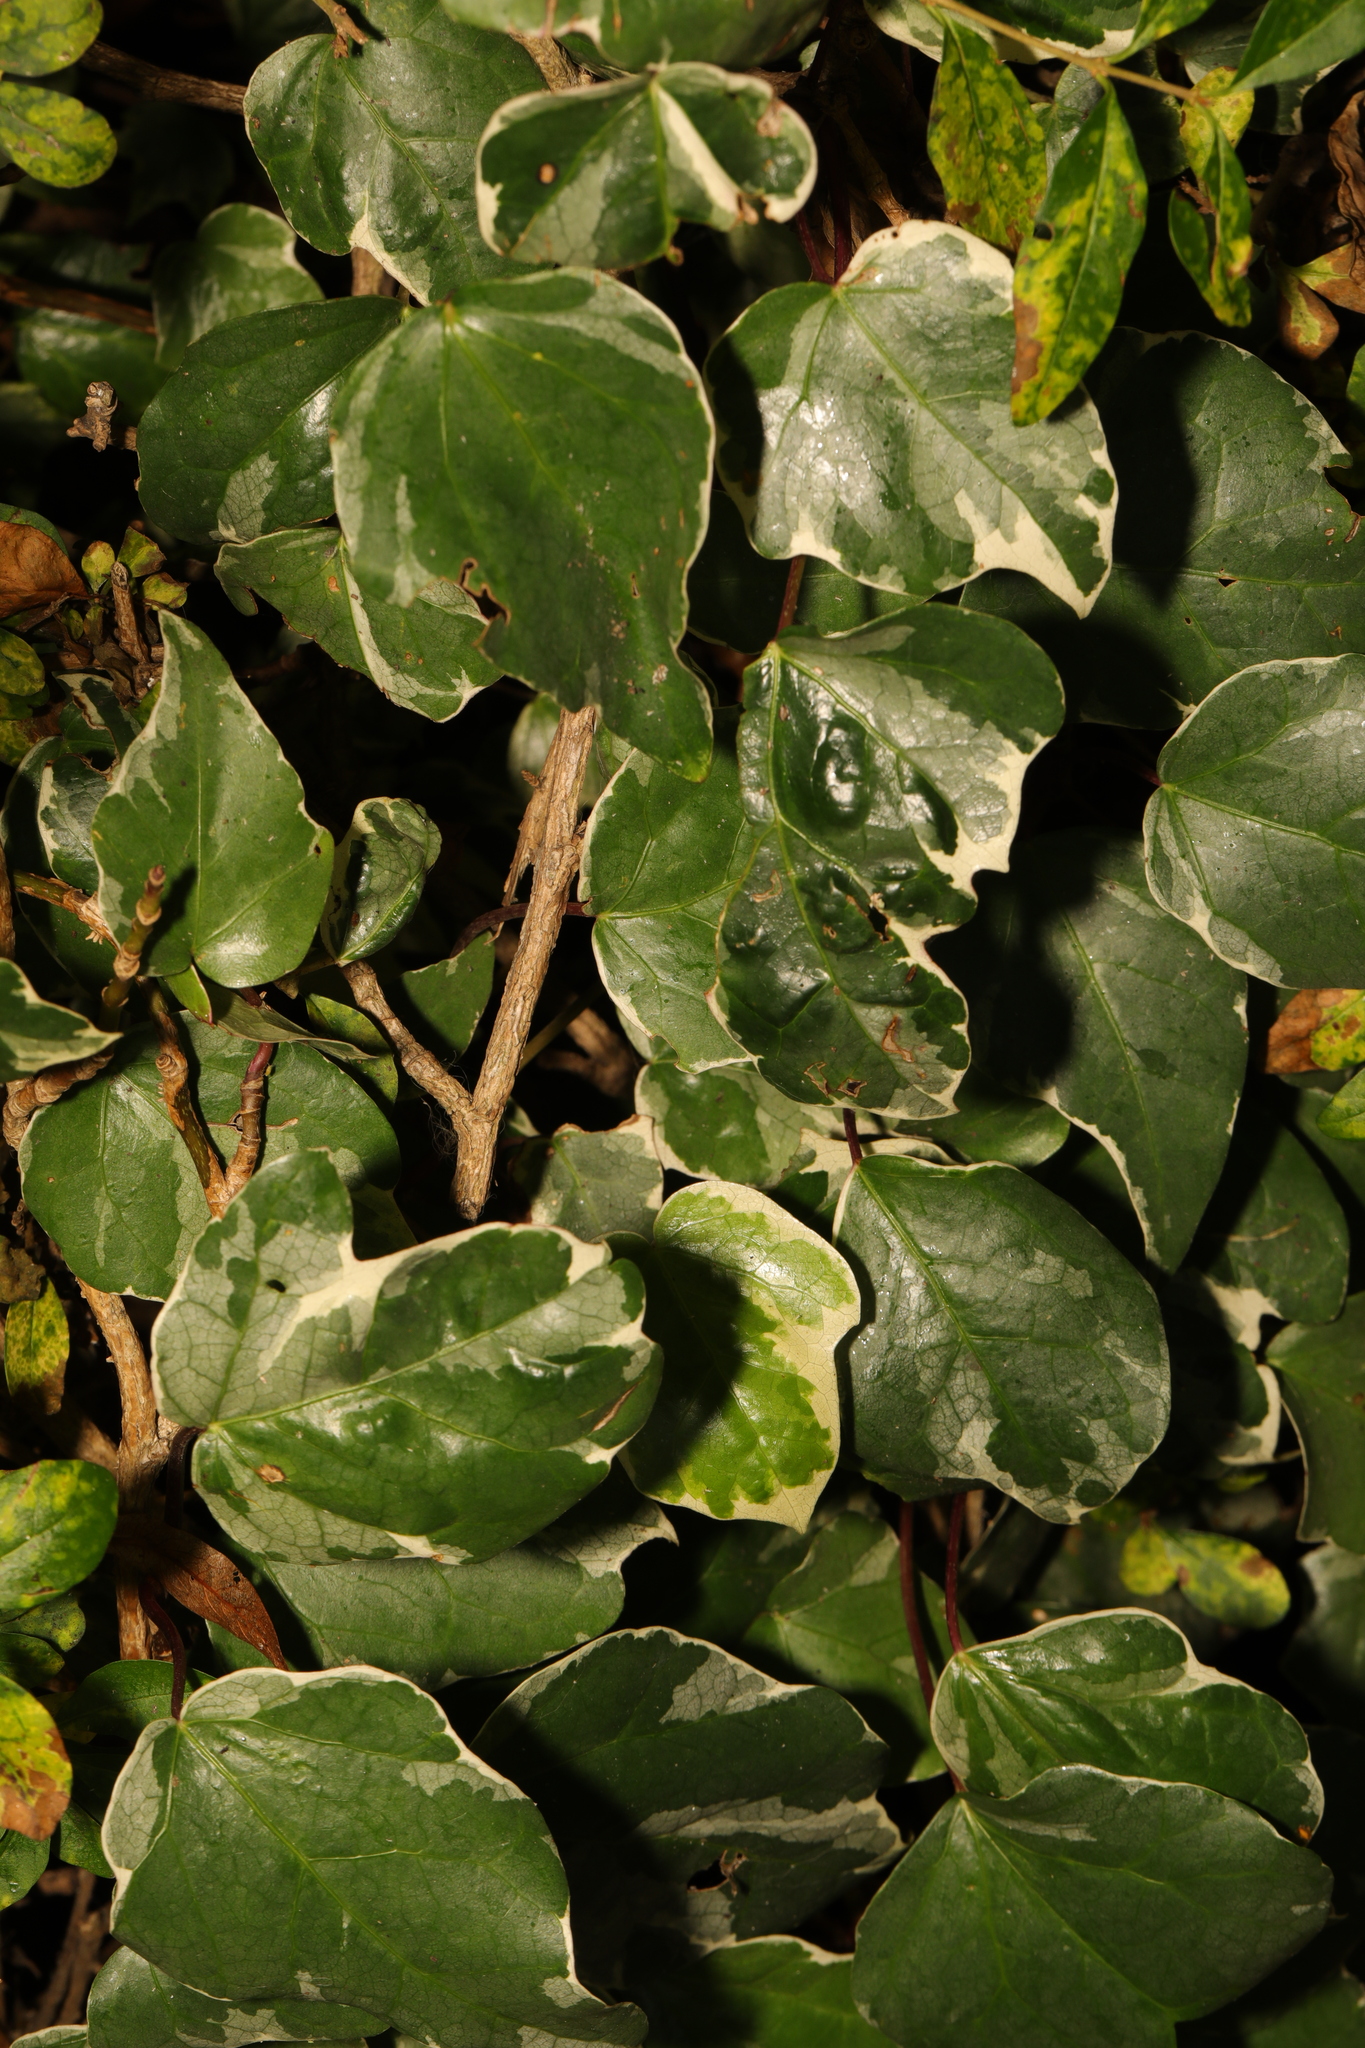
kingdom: Plantae
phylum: Tracheophyta
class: Magnoliopsida
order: Apiales
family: Araliaceae
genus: Hedera
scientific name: Hedera colchica
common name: Persian ivy
